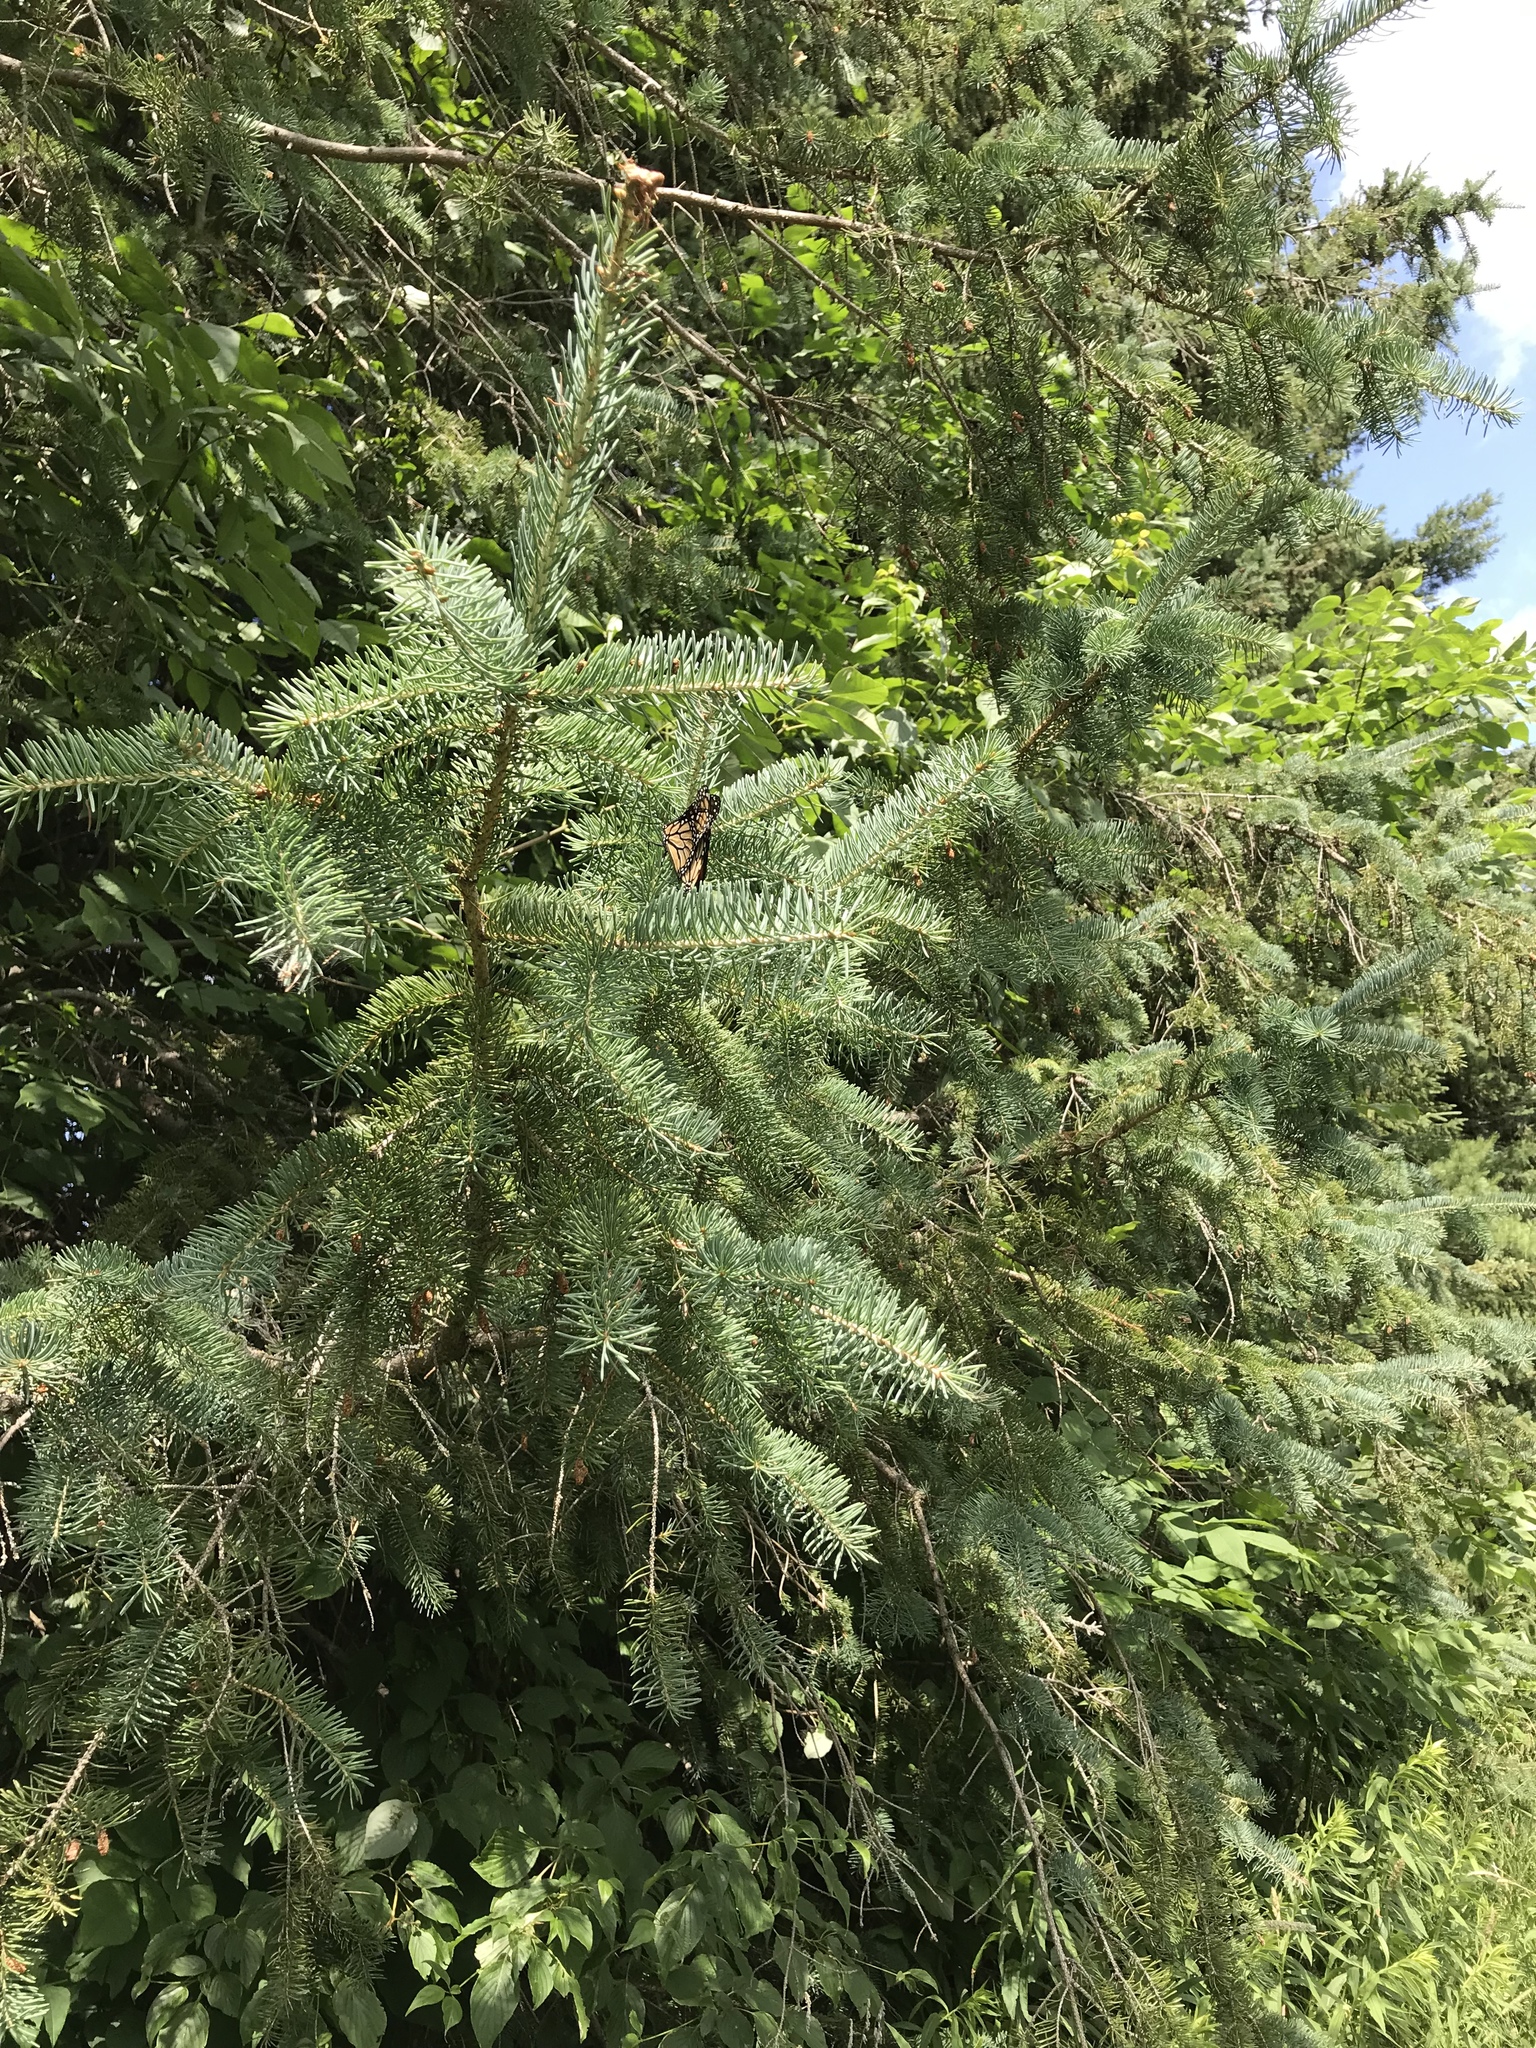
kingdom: Animalia
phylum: Arthropoda
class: Insecta
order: Lepidoptera
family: Nymphalidae
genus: Danaus
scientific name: Danaus plexippus
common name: Monarch
